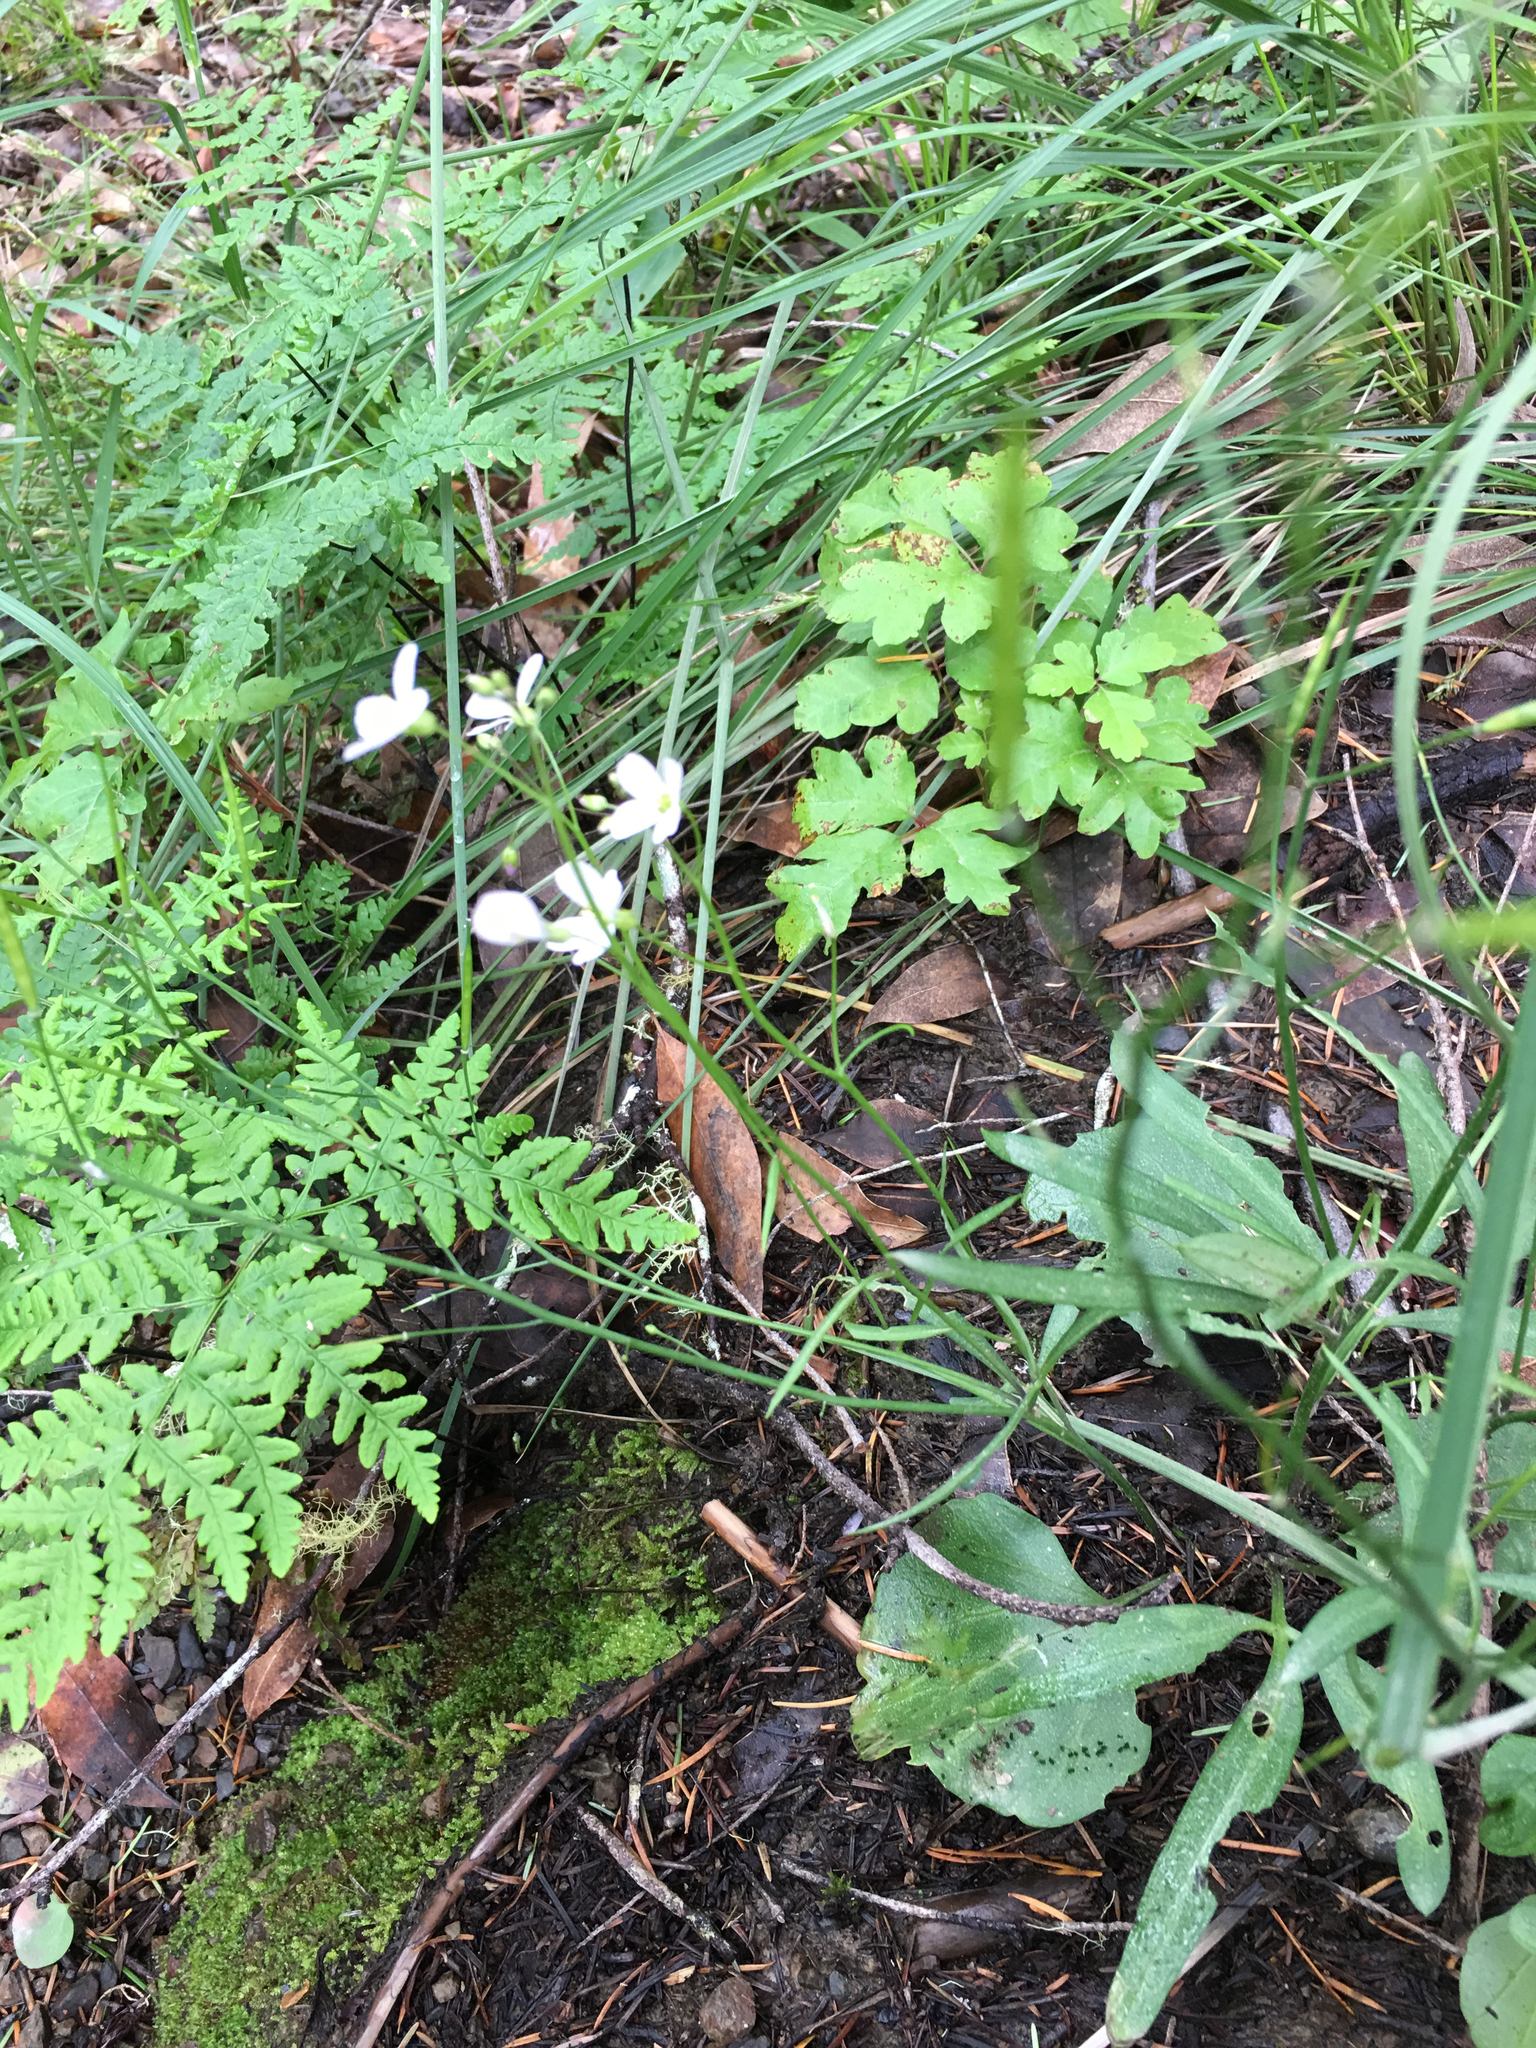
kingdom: Plantae
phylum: Tracheophyta
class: Magnoliopsida
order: Brassicales
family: Brassicaceae
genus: Cardamine
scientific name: Cardamine californica
